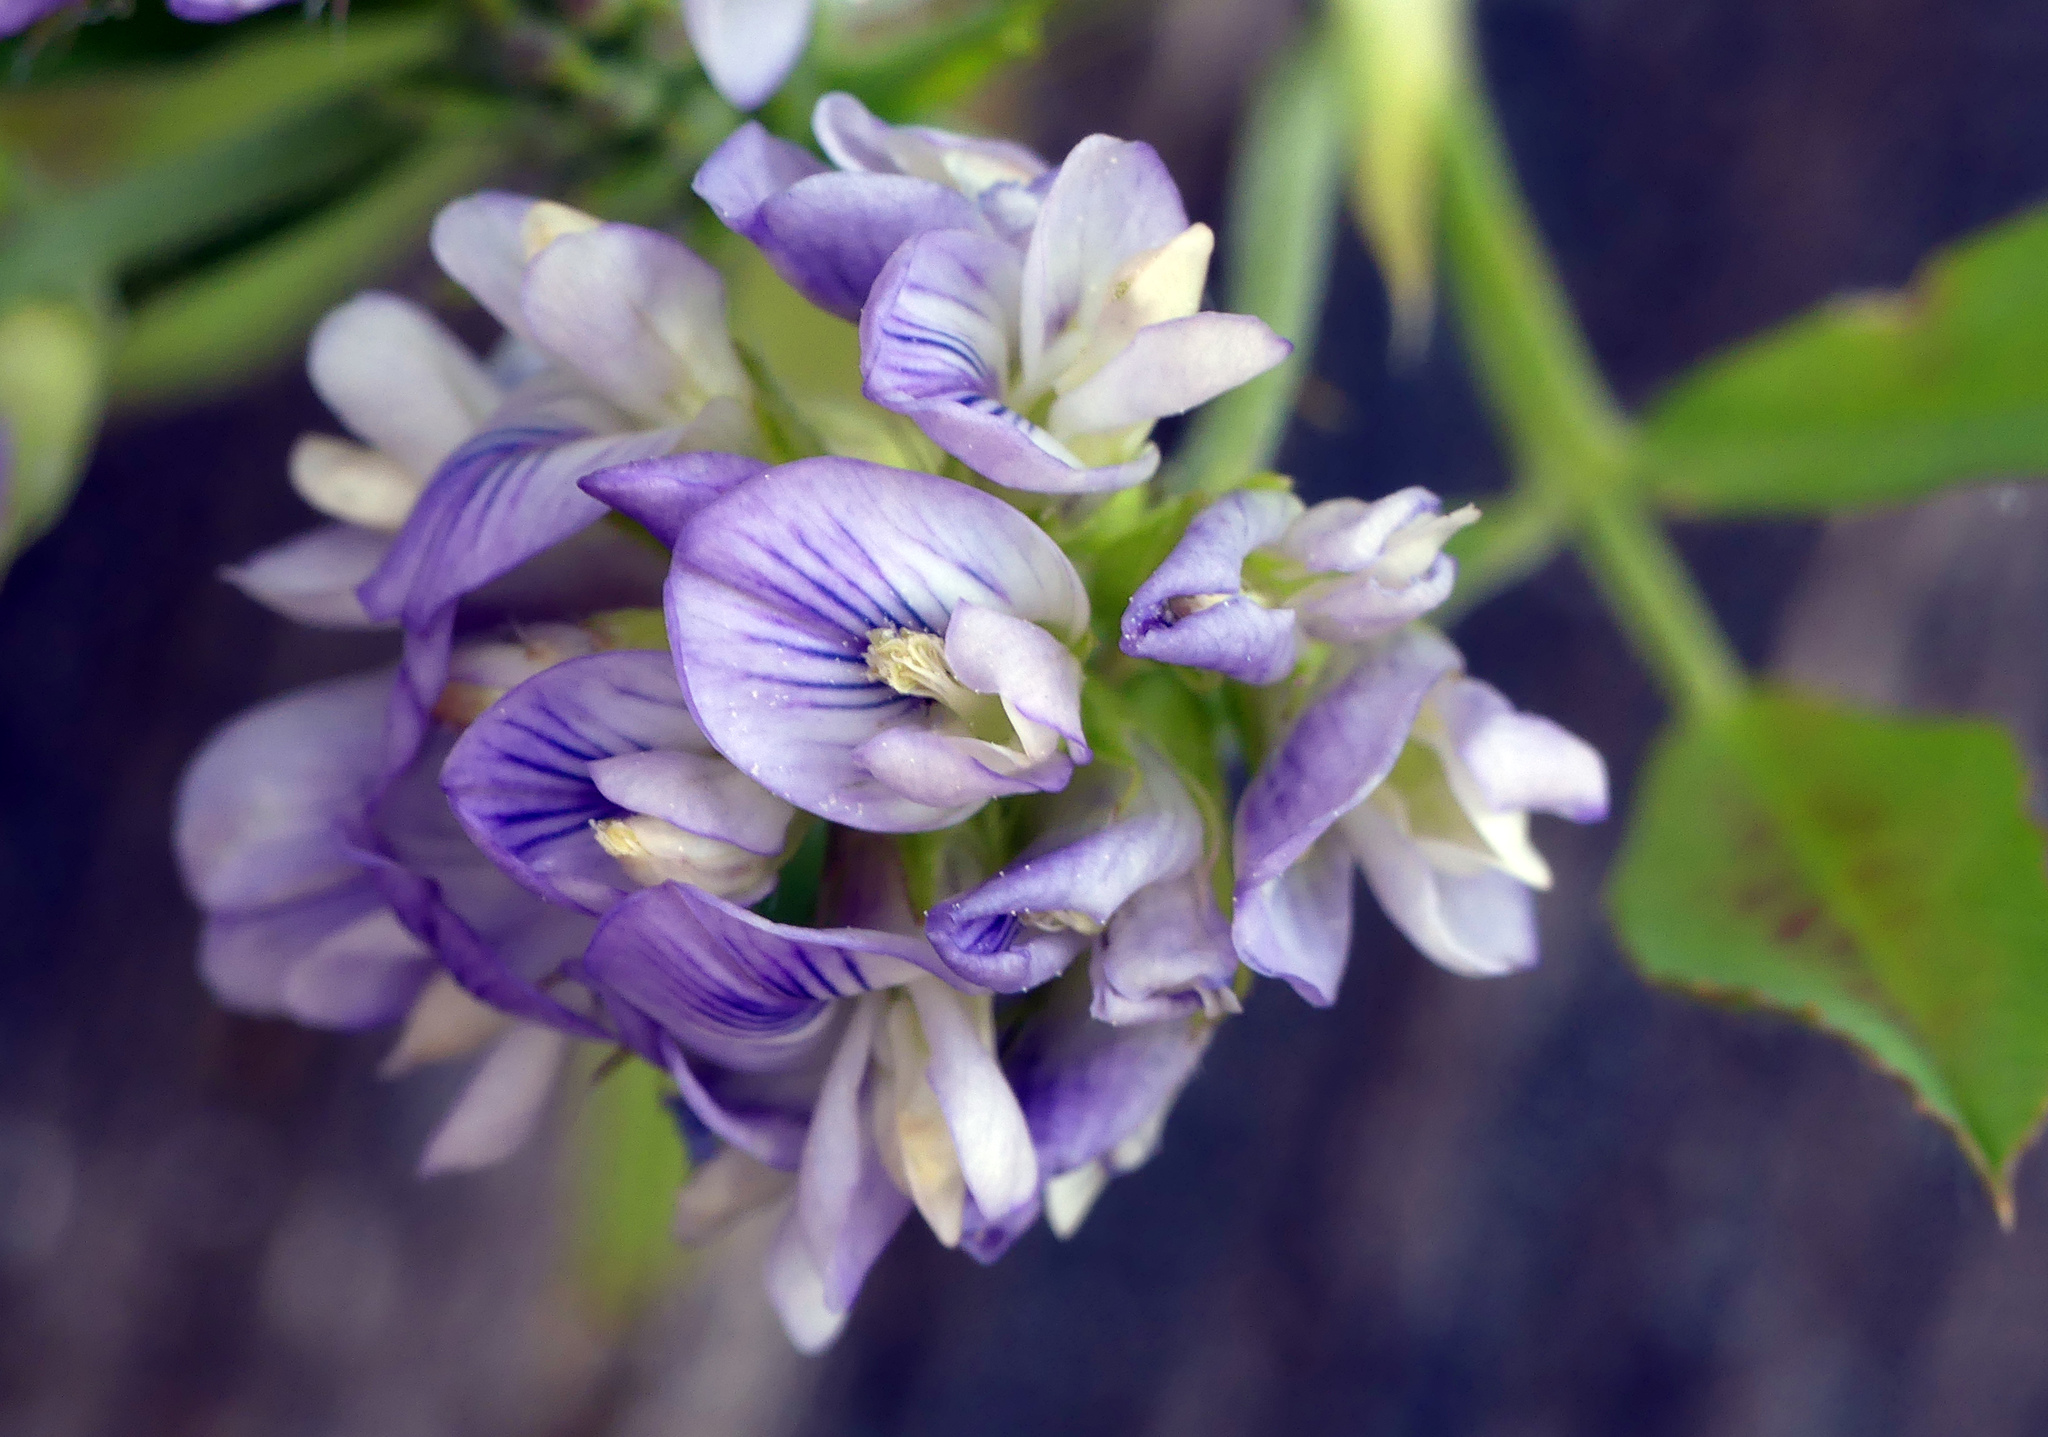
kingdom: Plantae
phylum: Tracheophyta
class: Magnoliopsida
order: Fabales
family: Fabaceae
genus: Medicago
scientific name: Medicago sativa
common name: Alfalfa
